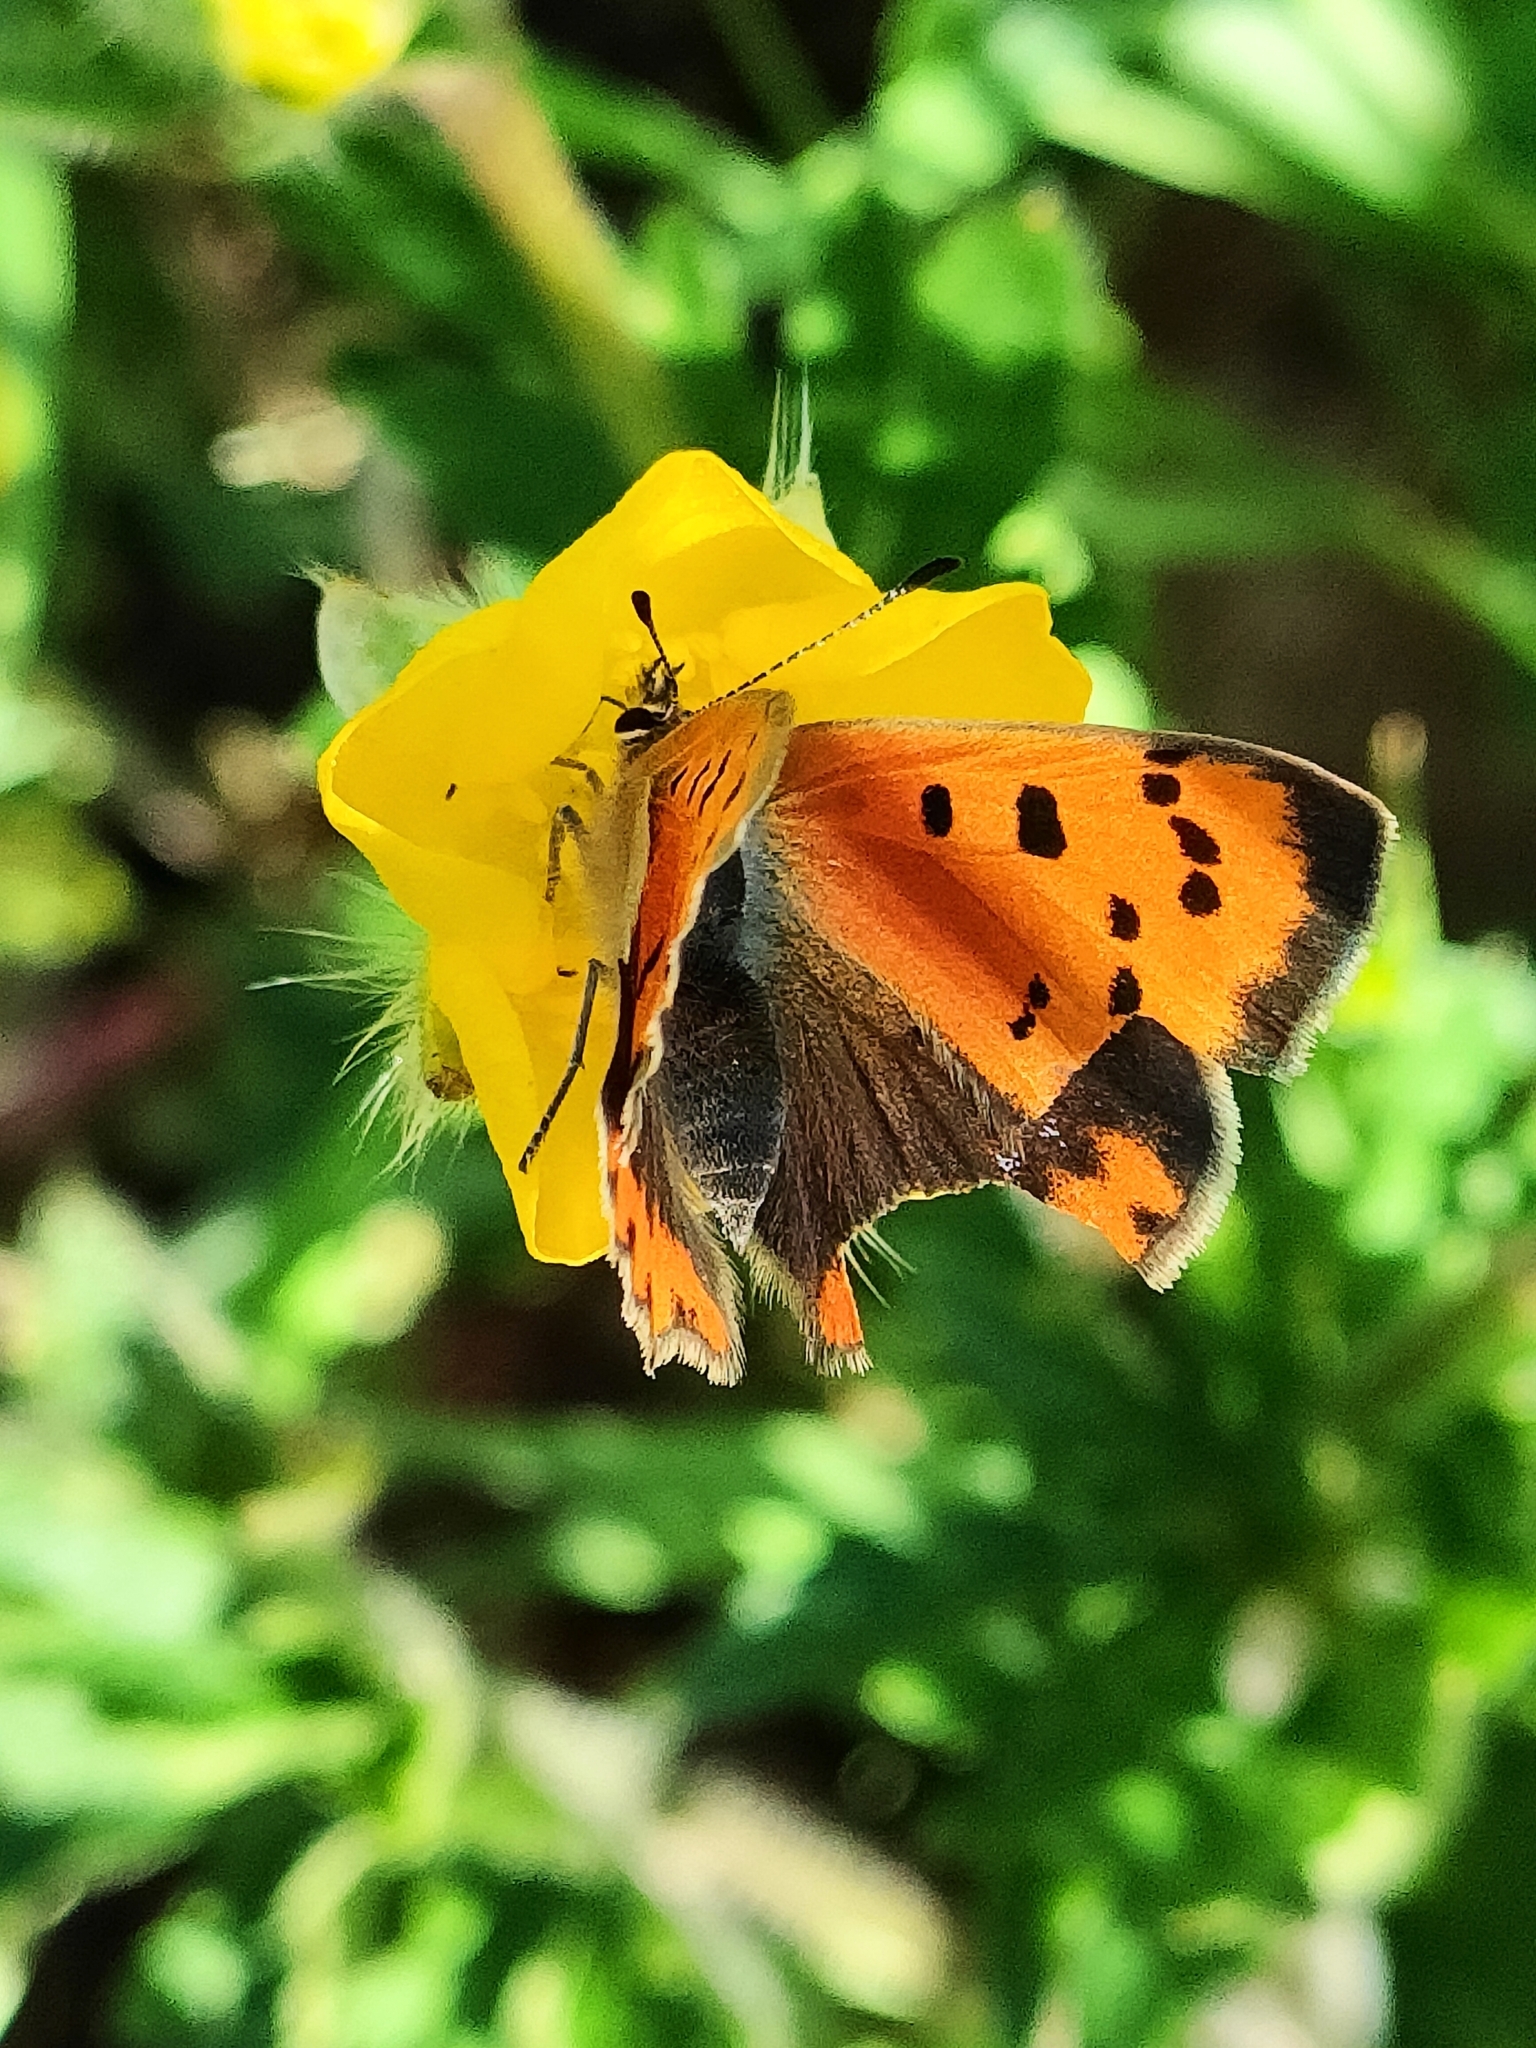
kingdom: Animalia
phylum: Arthropoda
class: Insecta
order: Lepidoptera
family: Lycaenidae
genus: Lycaena
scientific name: Lycaena phlaeas
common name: Small copper
